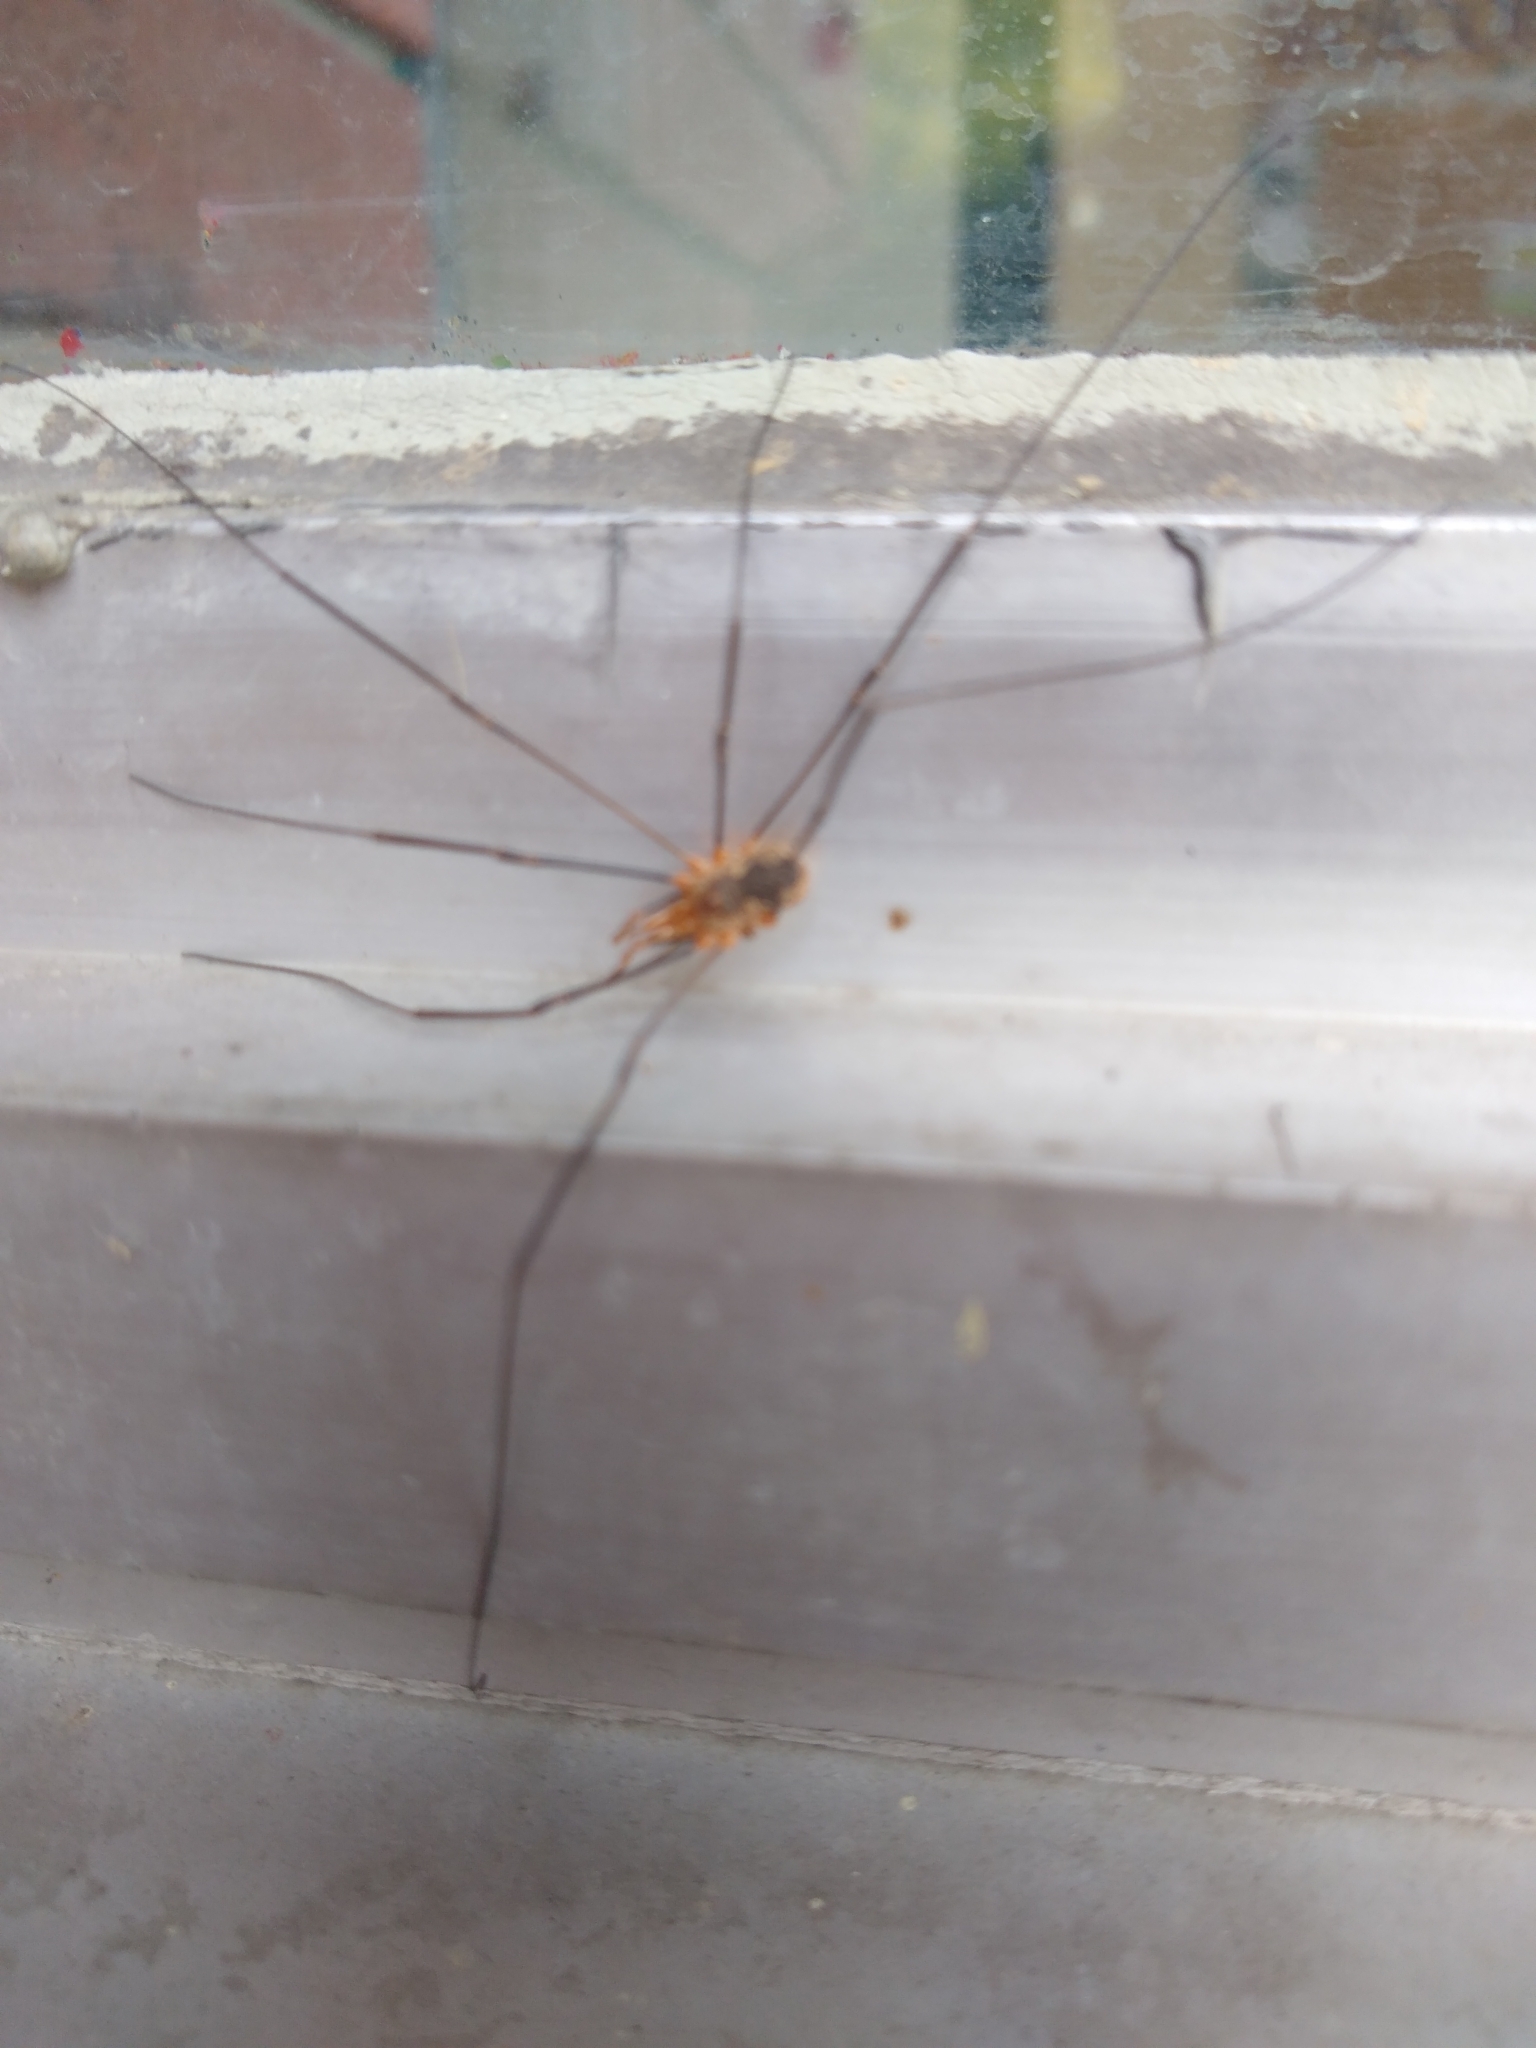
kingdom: Animalia
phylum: Arthropoda
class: Arachnida
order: Opiliones
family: Phalangiidae
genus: Phalangium
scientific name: Phalangium opilio
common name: Daddy longleg
